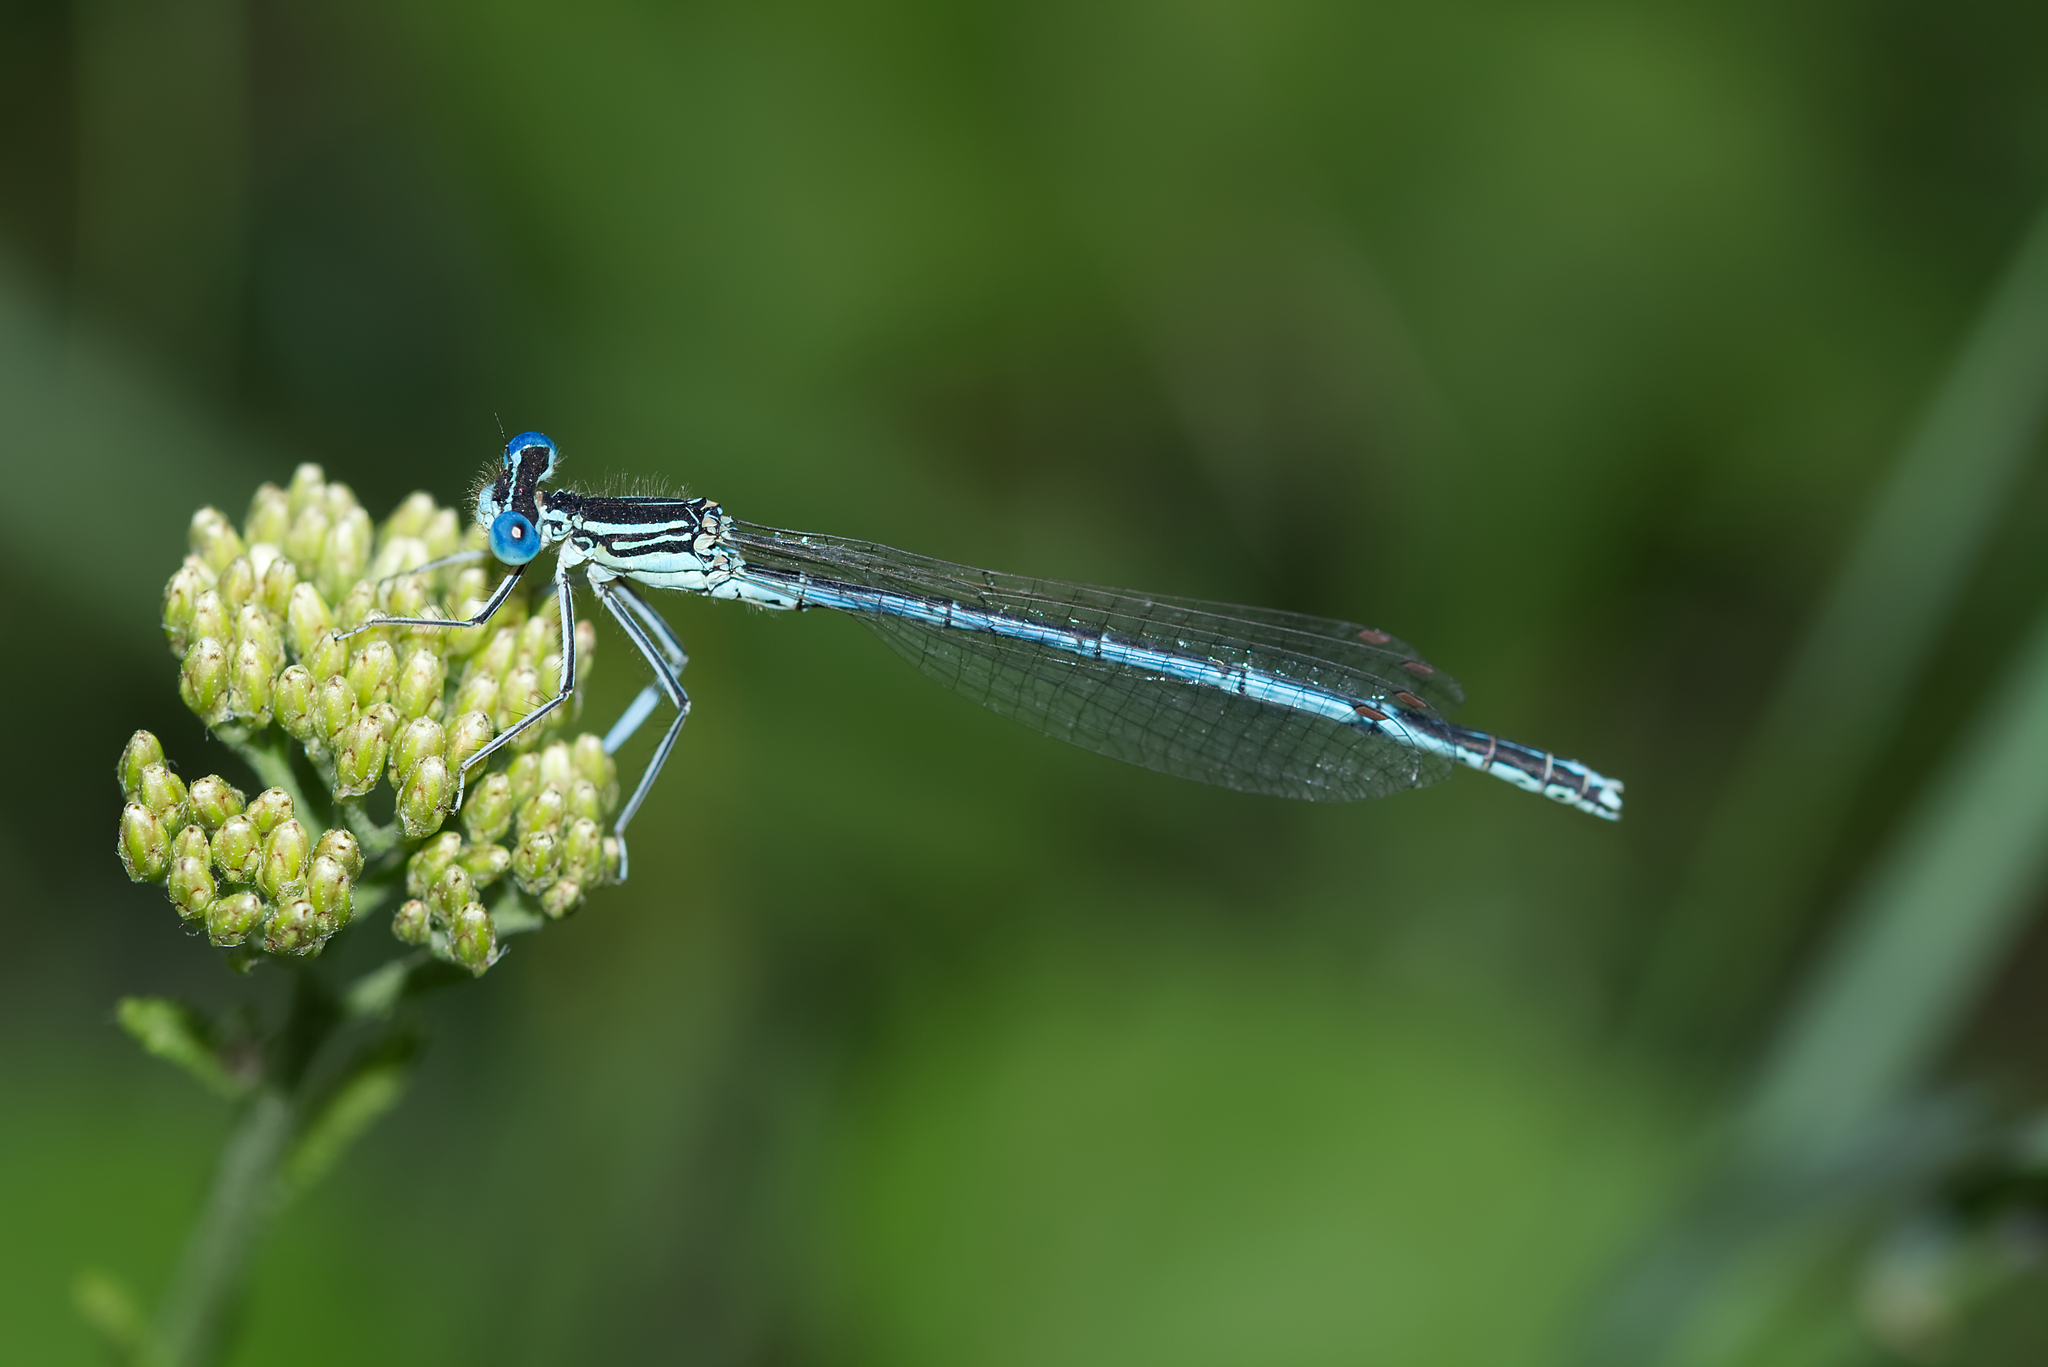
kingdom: Animalia
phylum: Arthropoda
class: Insecta
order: Odonata
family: Platycnemididae
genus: Platycnemis
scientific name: Platycnemis pennipes
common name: White-legged damselfly
